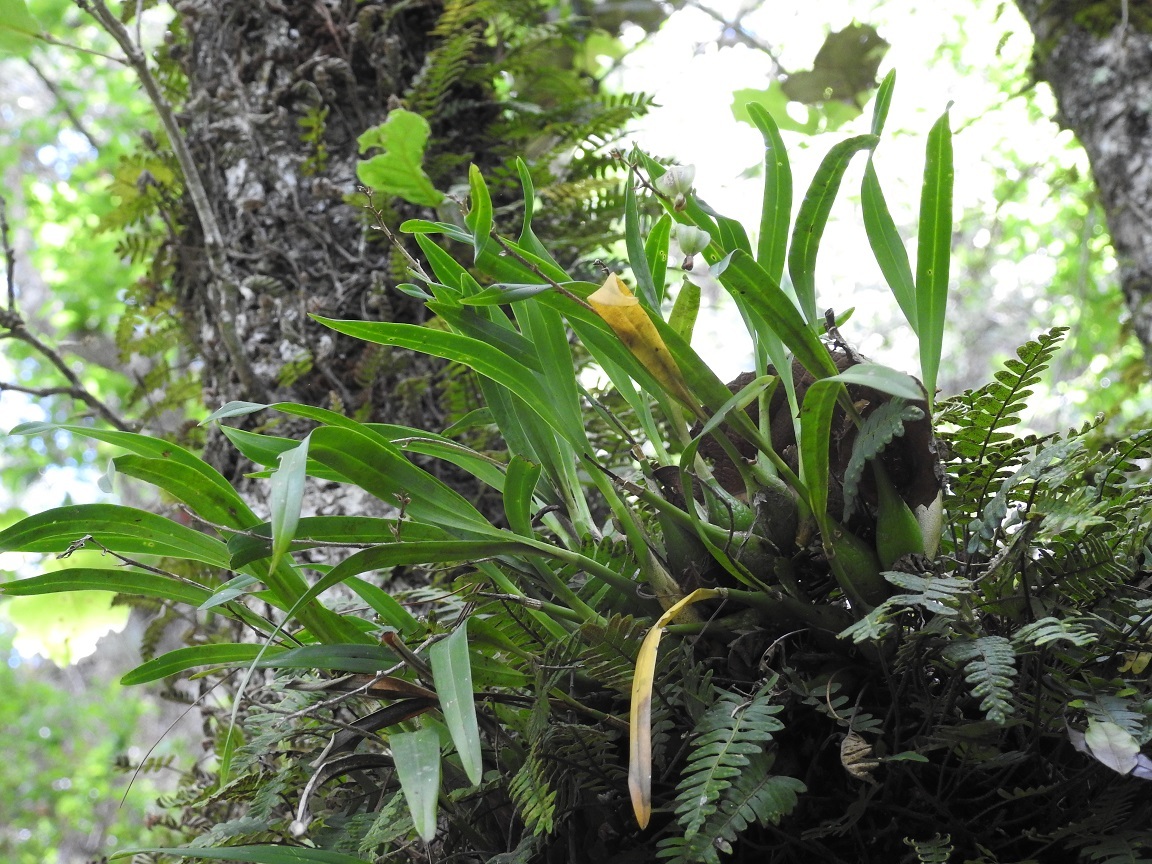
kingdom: Plantae
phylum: Tracheophyta
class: Liliopsida
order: Asparagales
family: Orchidaceae
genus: Prosthechea
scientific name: Prosthechea ochracea
